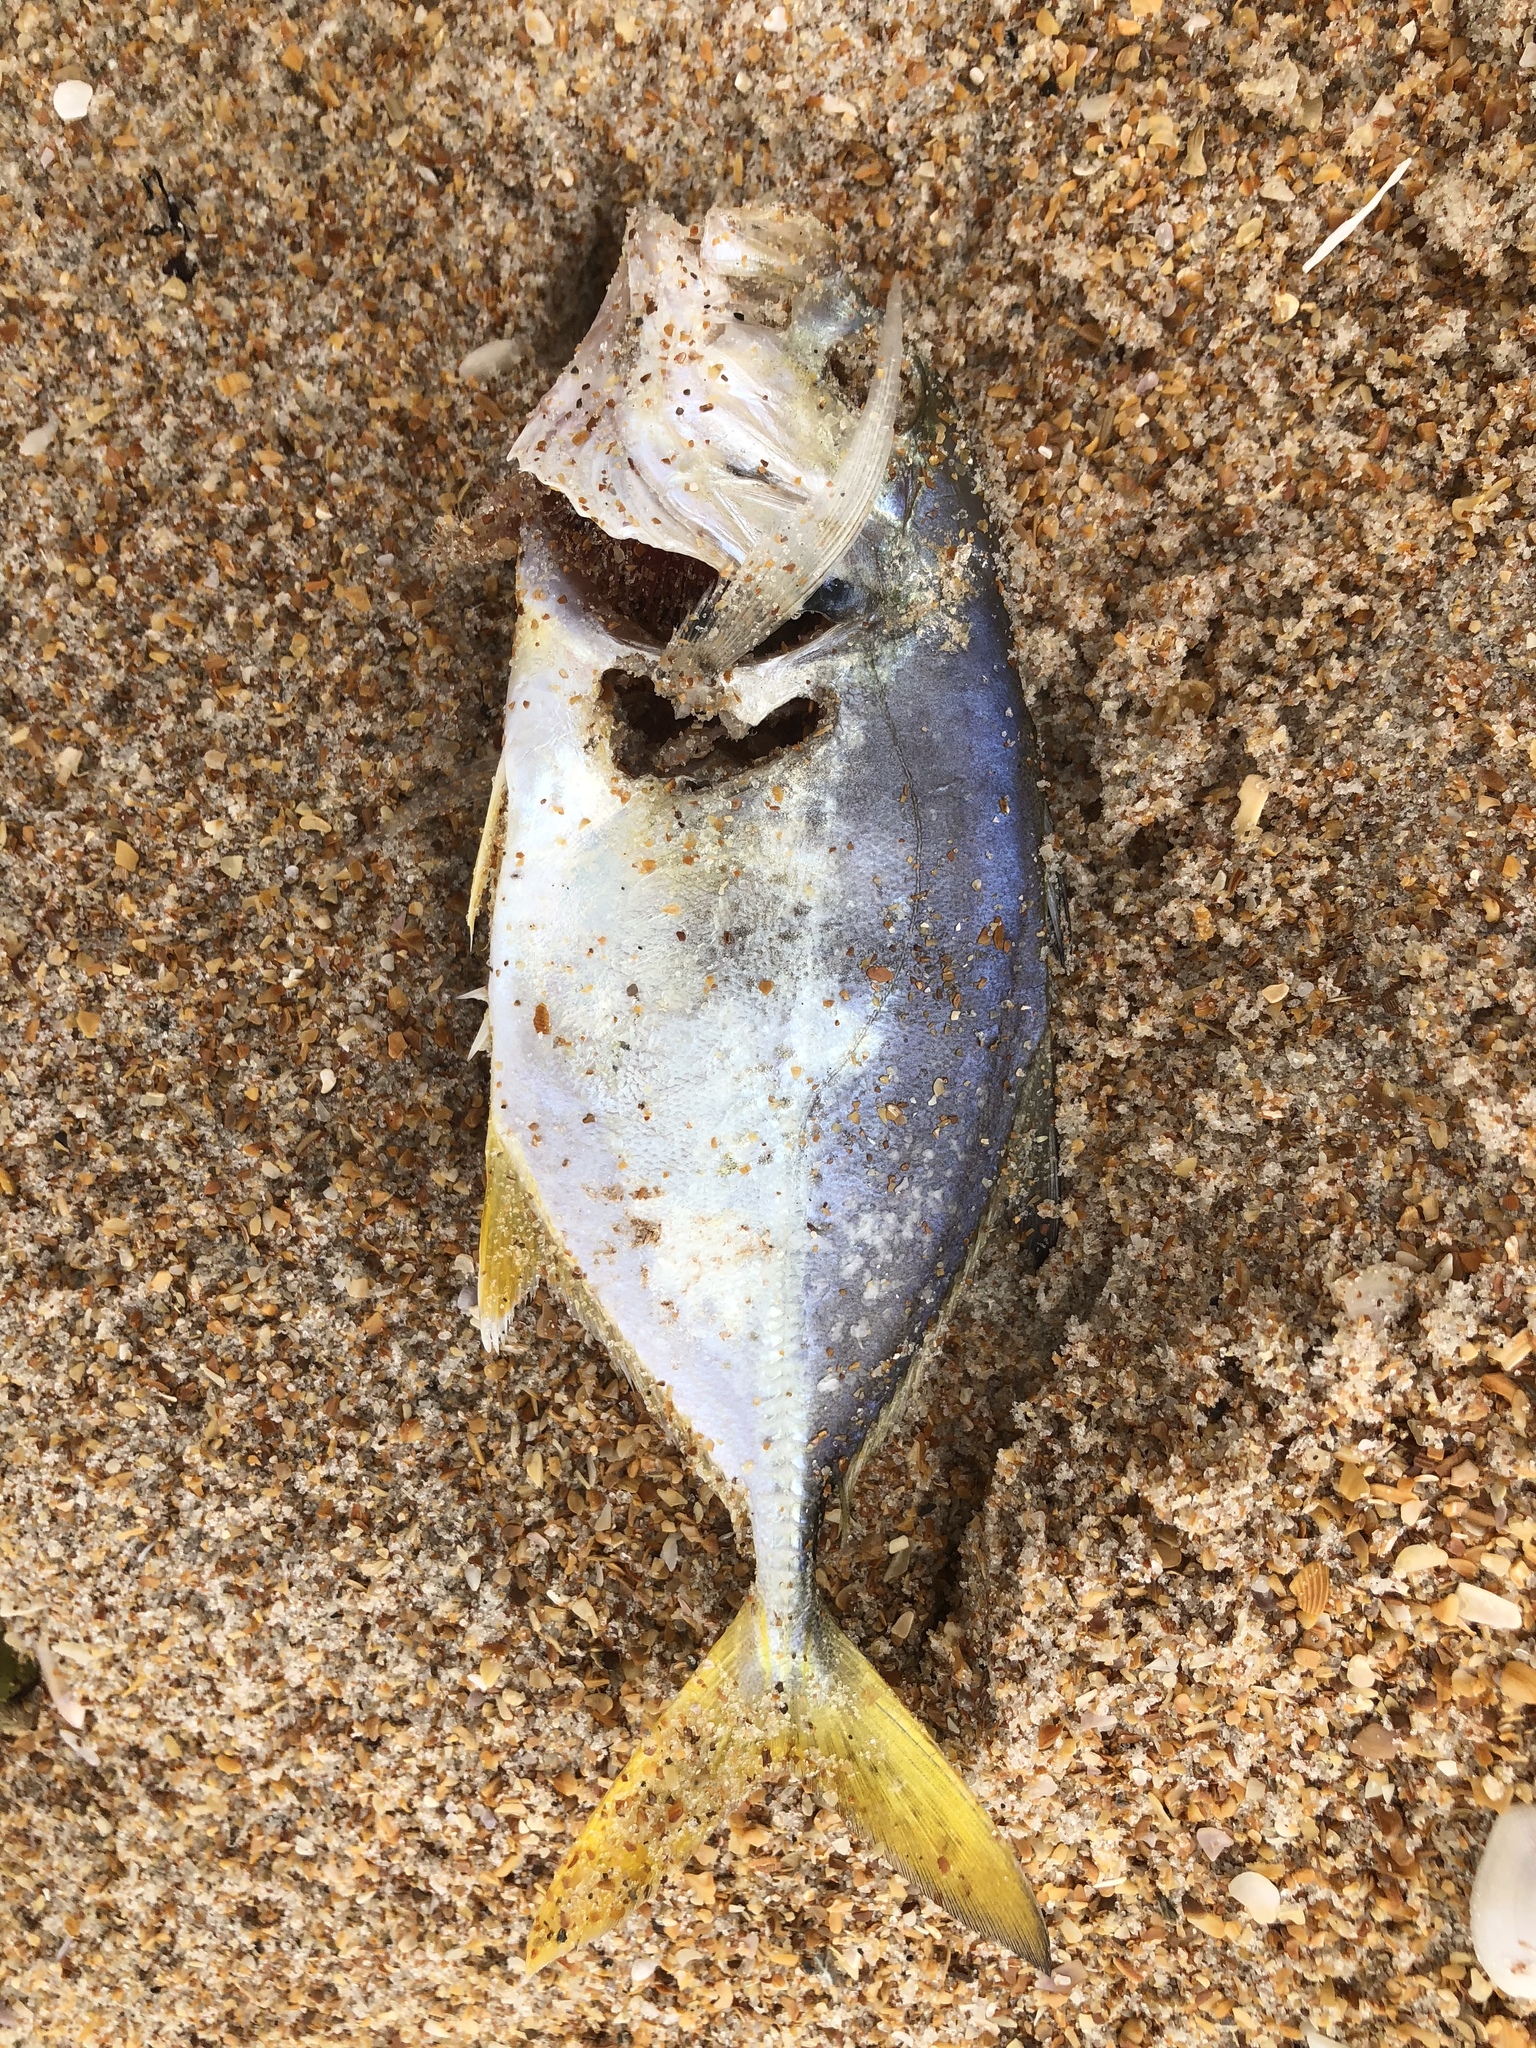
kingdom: Animalia
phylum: Chordata
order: Perciformes
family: Carangidae
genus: Trachinotus
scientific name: Trachinotus carolinus
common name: Florida pompano
